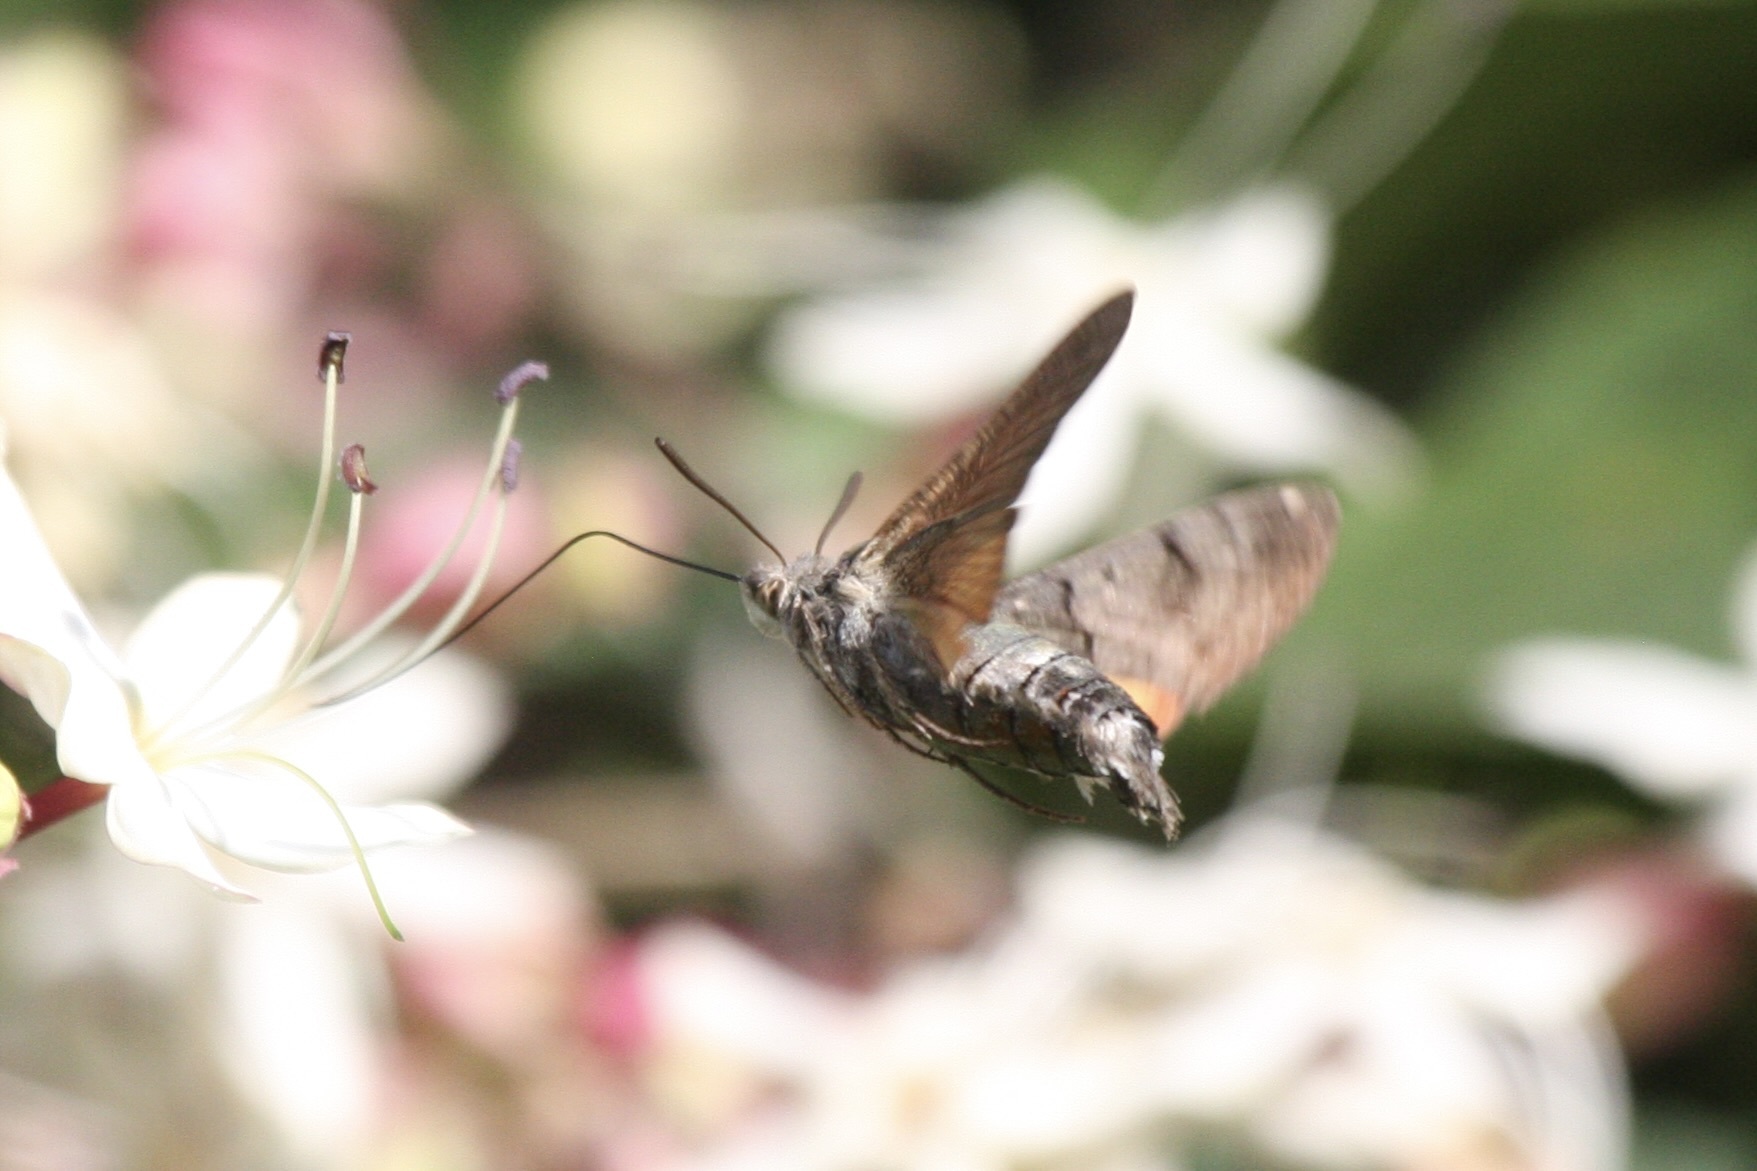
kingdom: Animalia
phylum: Arthropoda
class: Insecta
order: Lepidoptera
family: Sphingidae
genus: Macroglossum
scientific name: Macroglossum stellatarum
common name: Humming-bird hawk-moth
